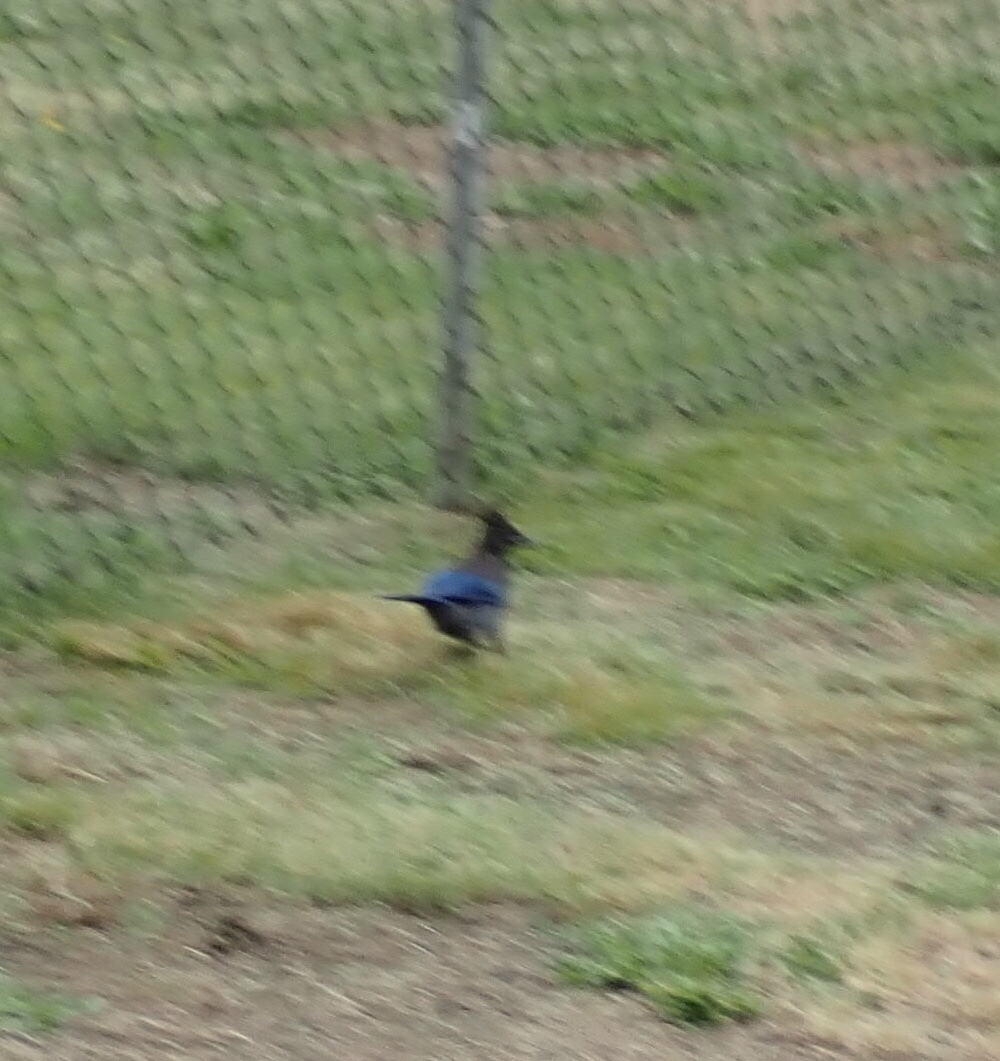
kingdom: Animalia
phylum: Chordata
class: Aves
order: Passeriformes
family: Corvidae
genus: Cyanocitta
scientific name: Cyanocitta stelleri
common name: Steller's jay
